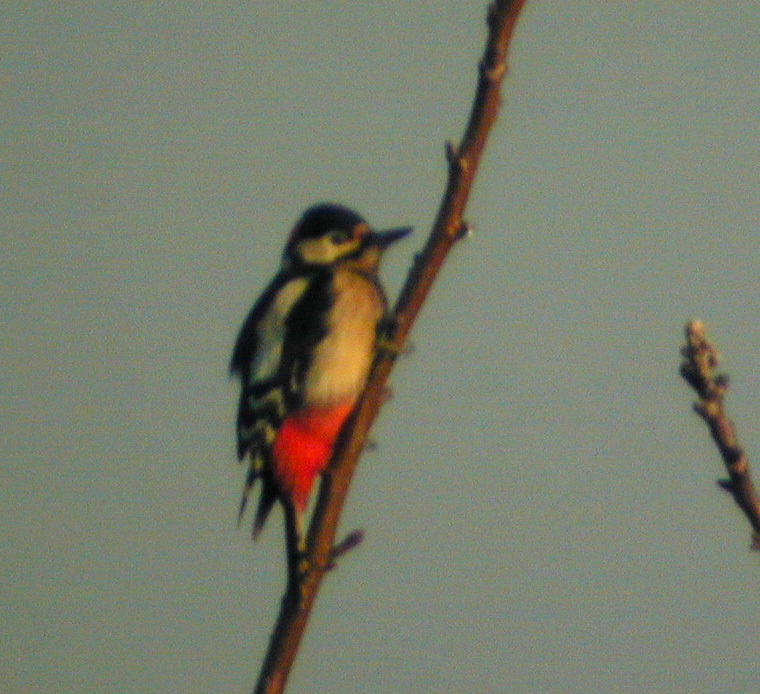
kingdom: Animalia
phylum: Chordata
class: Aves
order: Piciformes
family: Picidae
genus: Dendrocopos
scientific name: Dendrocopos major
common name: Great spotted woodpecker
